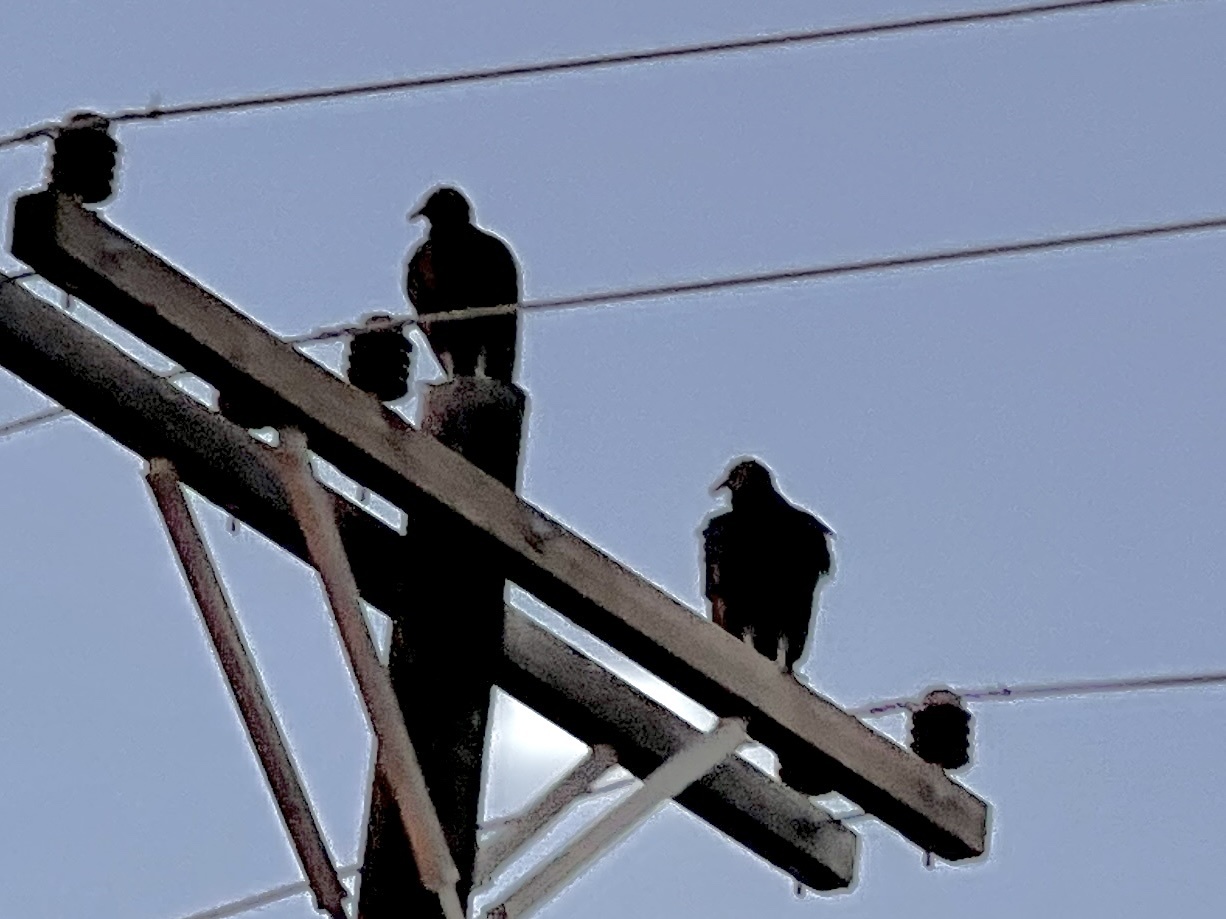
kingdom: Animalia
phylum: Chordata
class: Aves
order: Accipitriformes
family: Cathartidae
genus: Coragyps
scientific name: Coragyps atratus
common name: Black vulture
